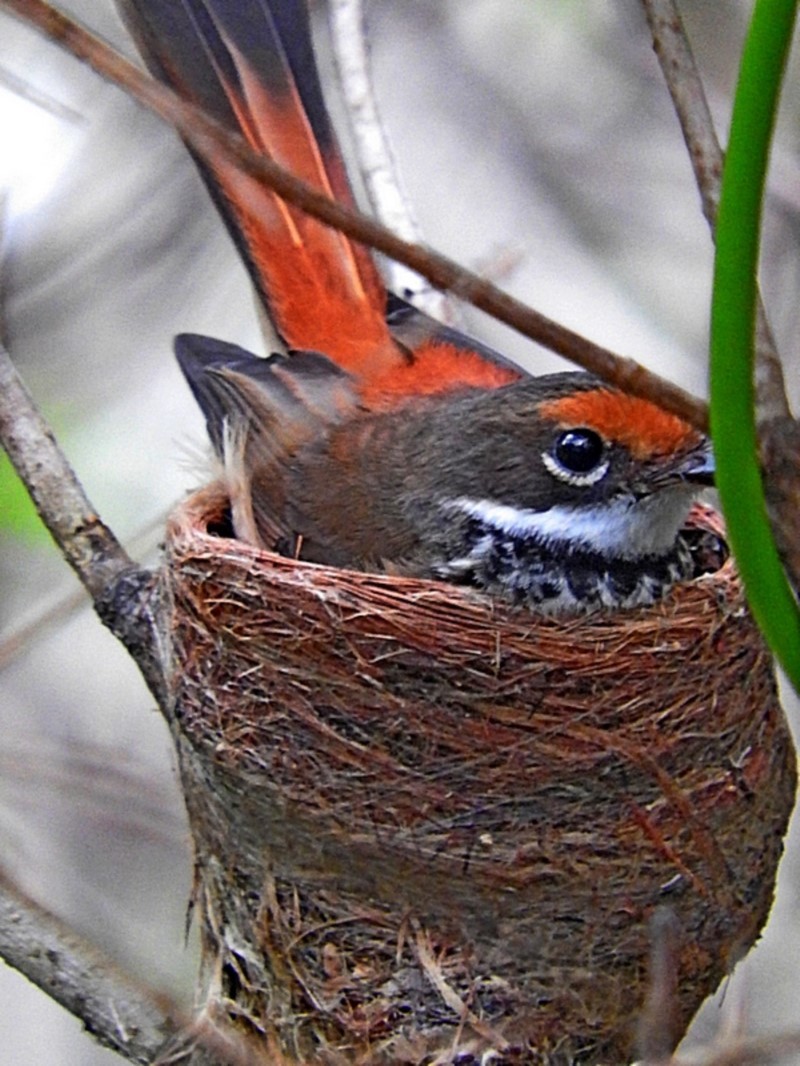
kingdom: Animalia
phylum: Chordata
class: Aves
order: Passeriformes
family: Rhipiduridae
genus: Rhipidura
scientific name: Rhipidura rufifrons
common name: Rufous fantail
